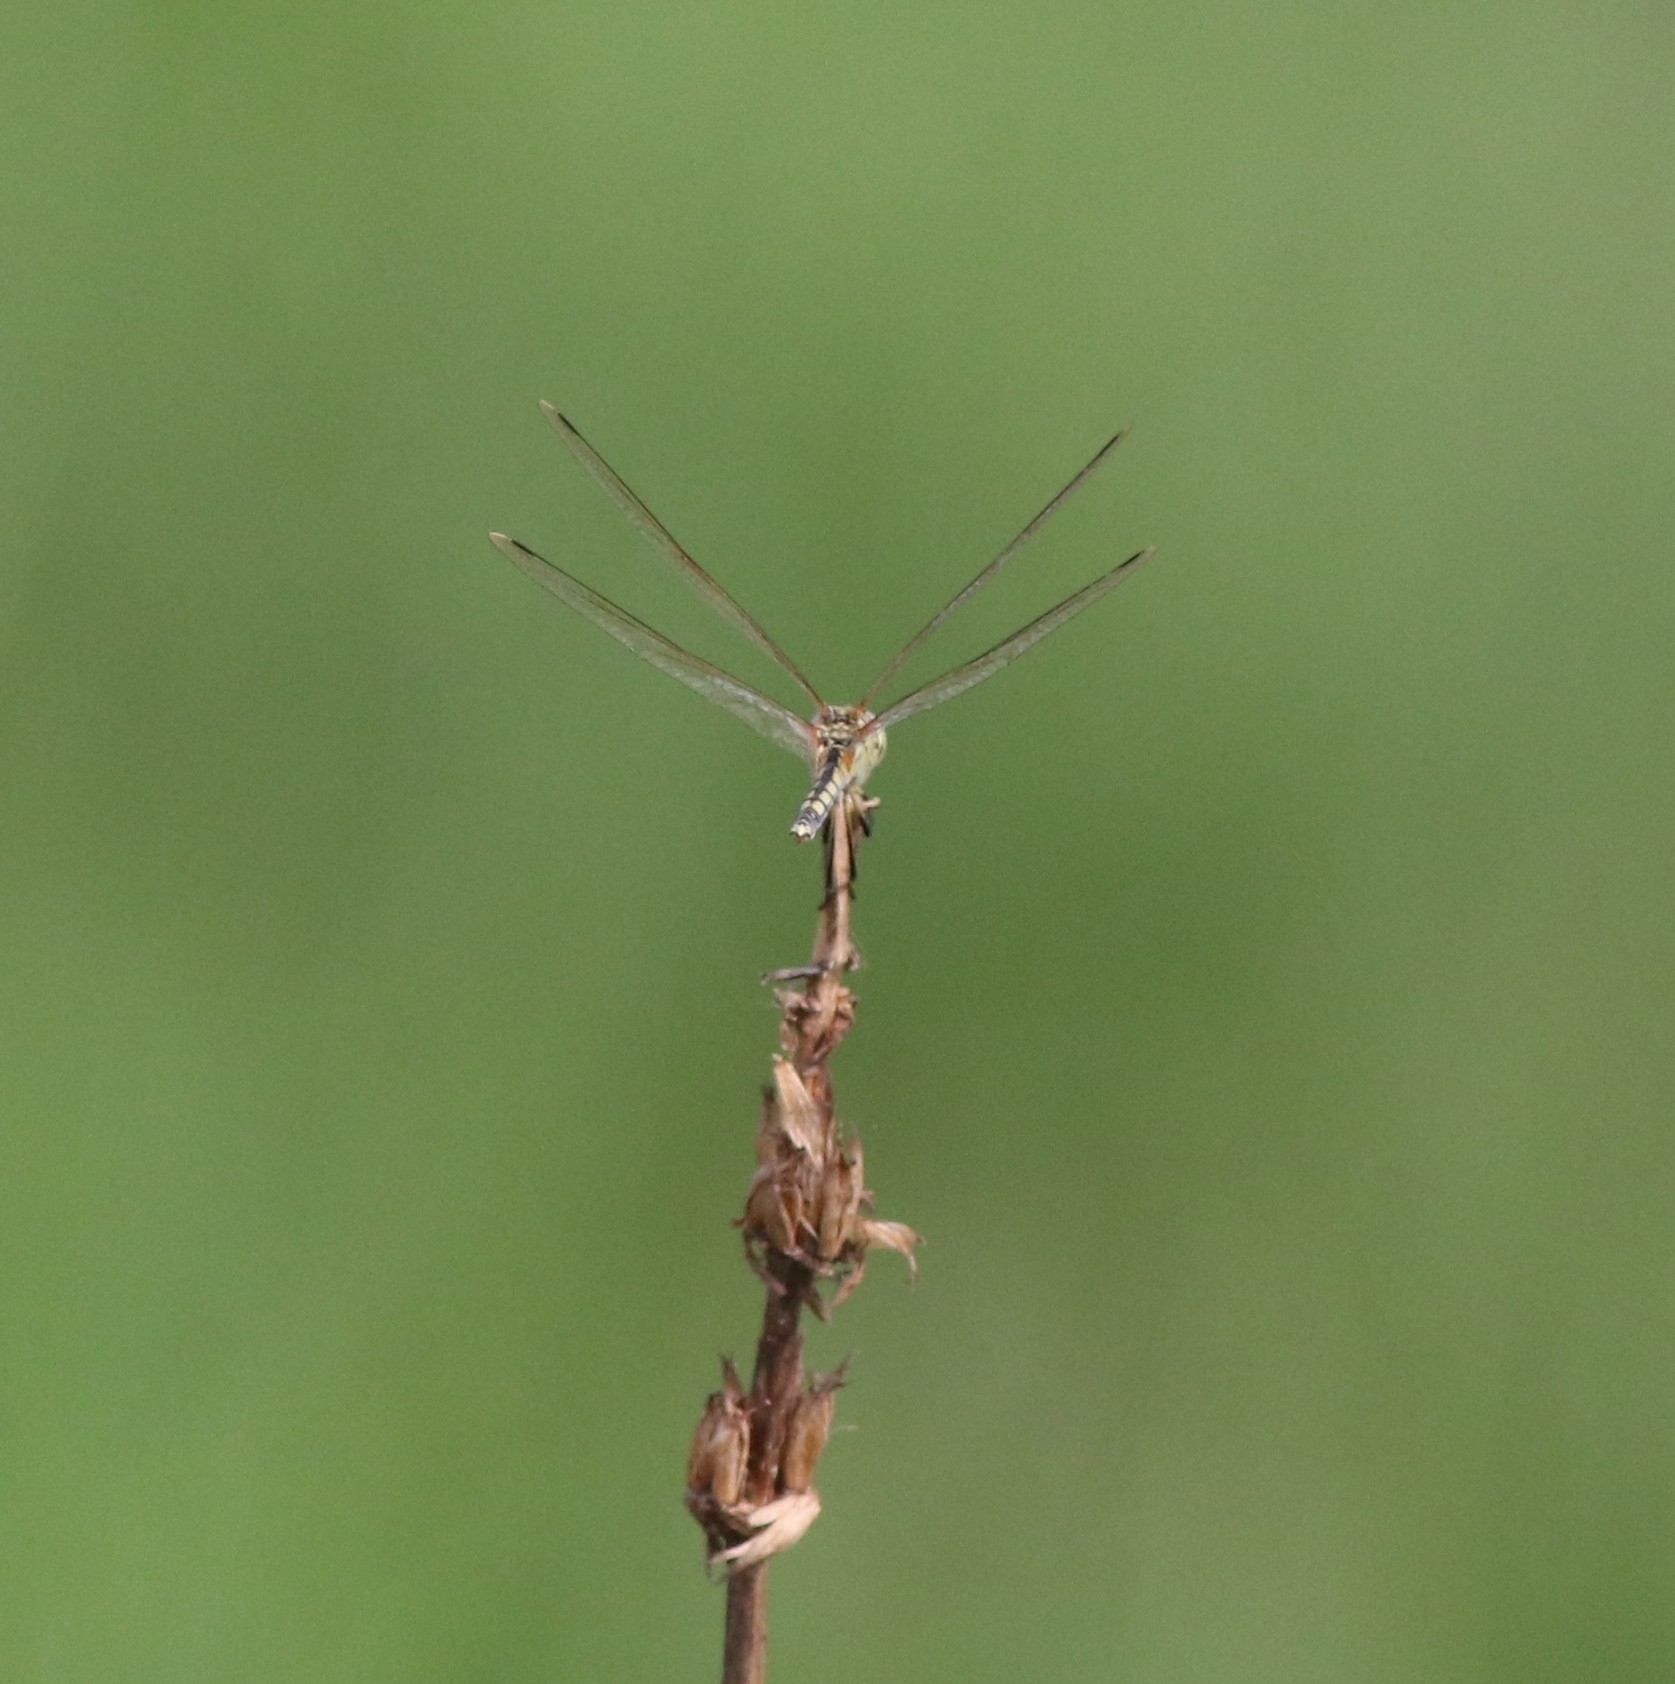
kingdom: Animalia
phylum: Arthropoda
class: Insecta
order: Odonata
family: Libellulidae
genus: Trithemis
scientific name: Trithemis pallidinervis
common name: Dancing dropwing
